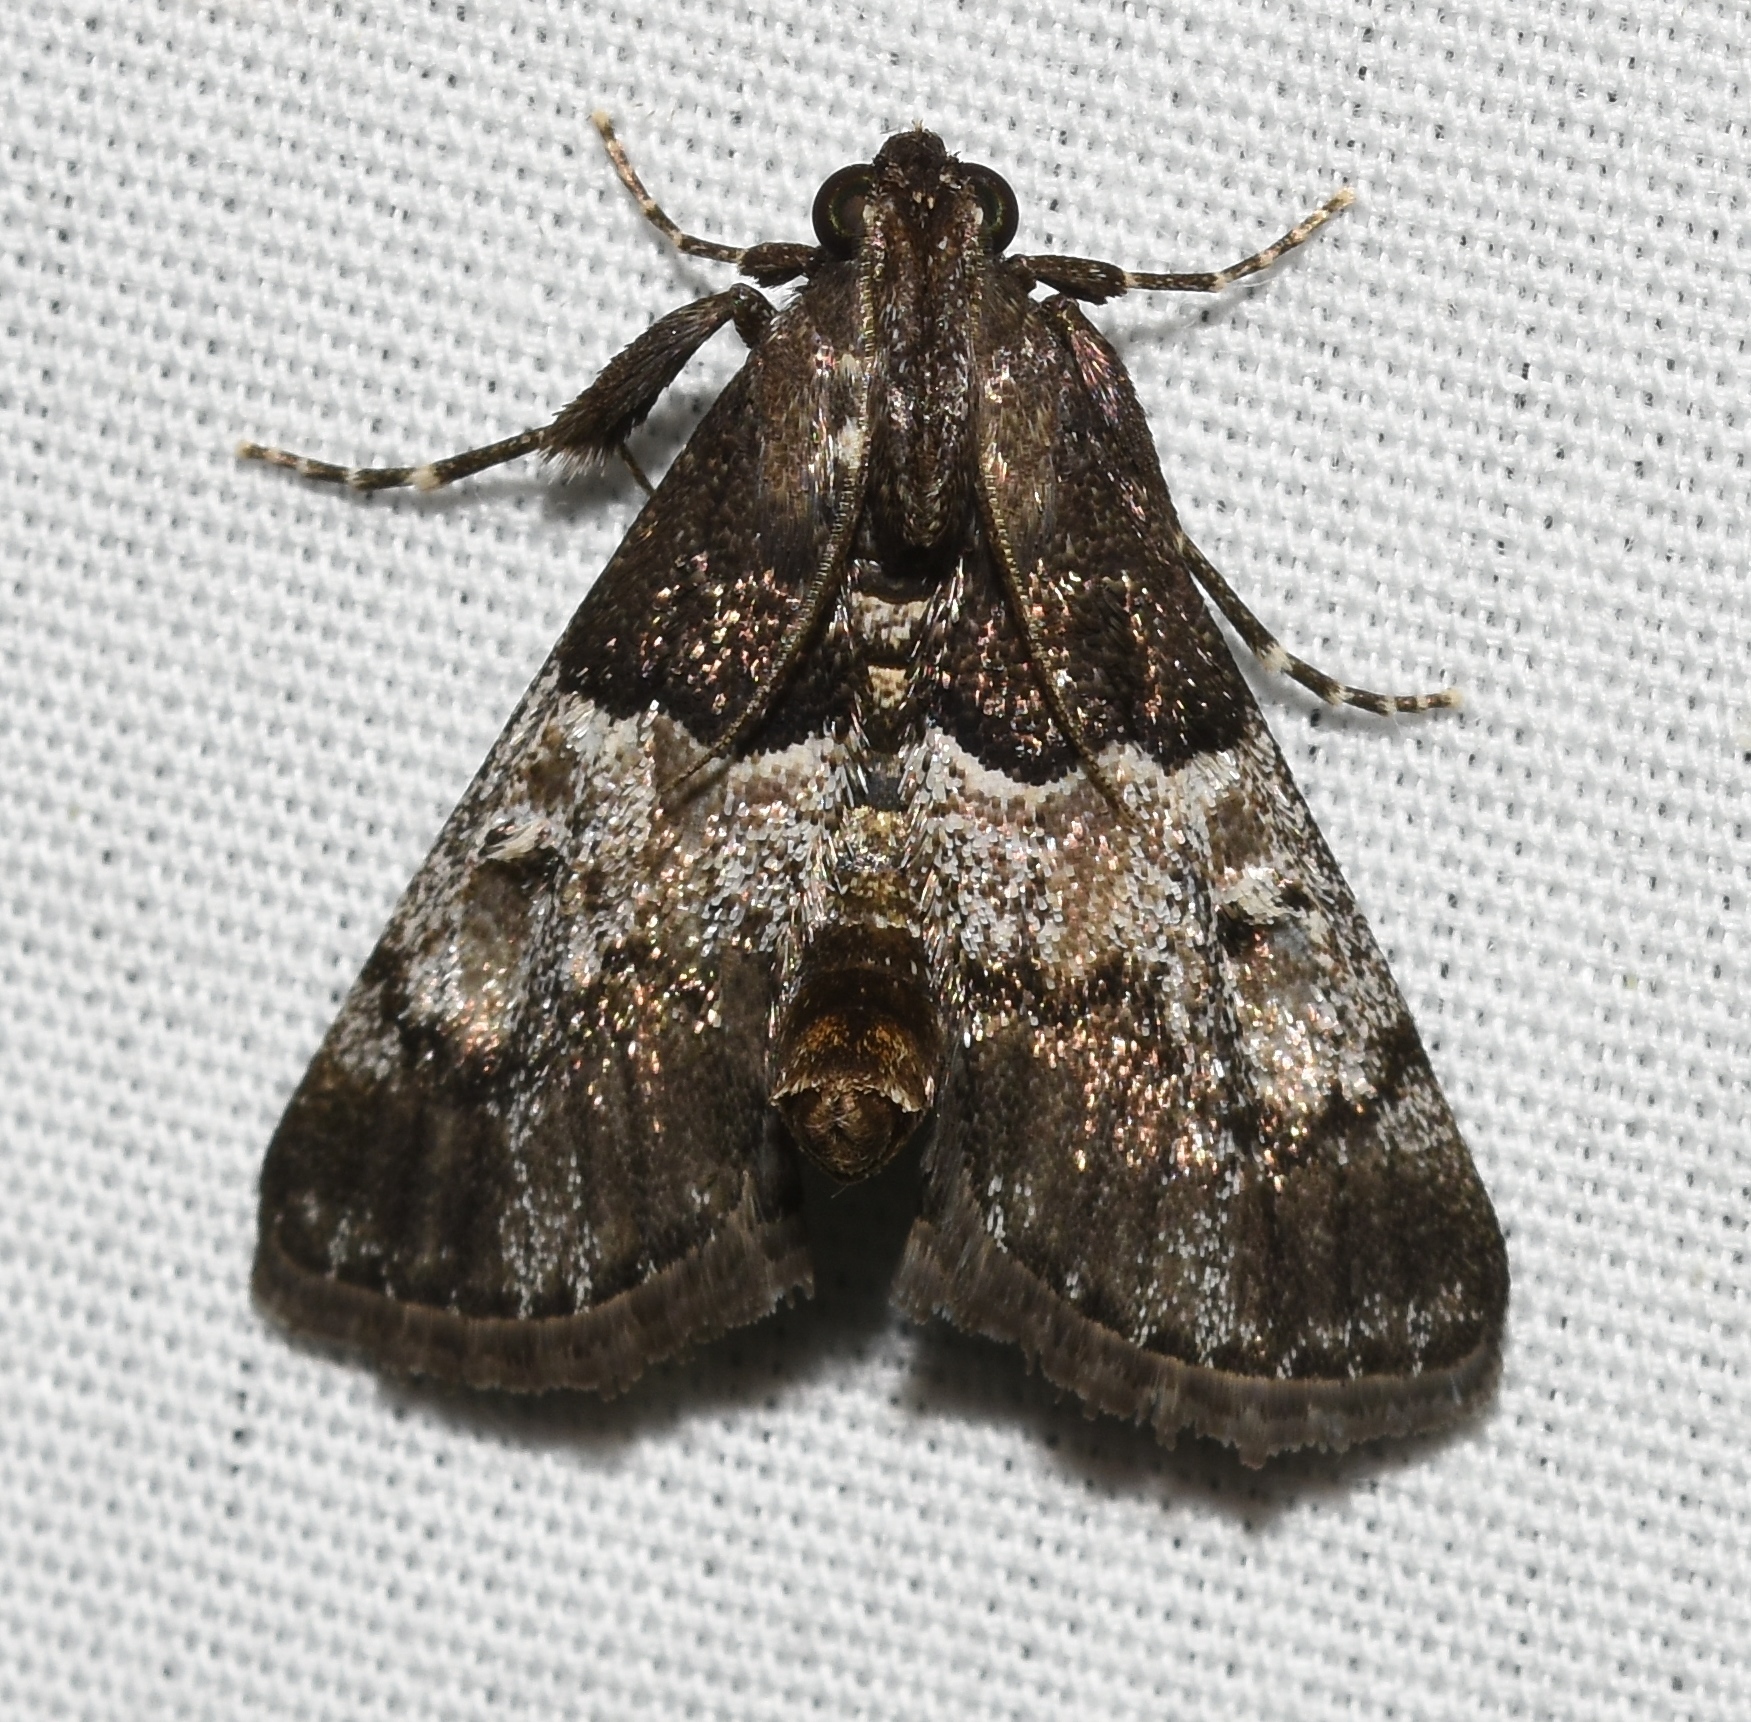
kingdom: Animalia
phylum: Arthropoda
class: Insecta
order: Lepidoptera
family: Pyralidae
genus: Macalla
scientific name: Macalla zelleri
